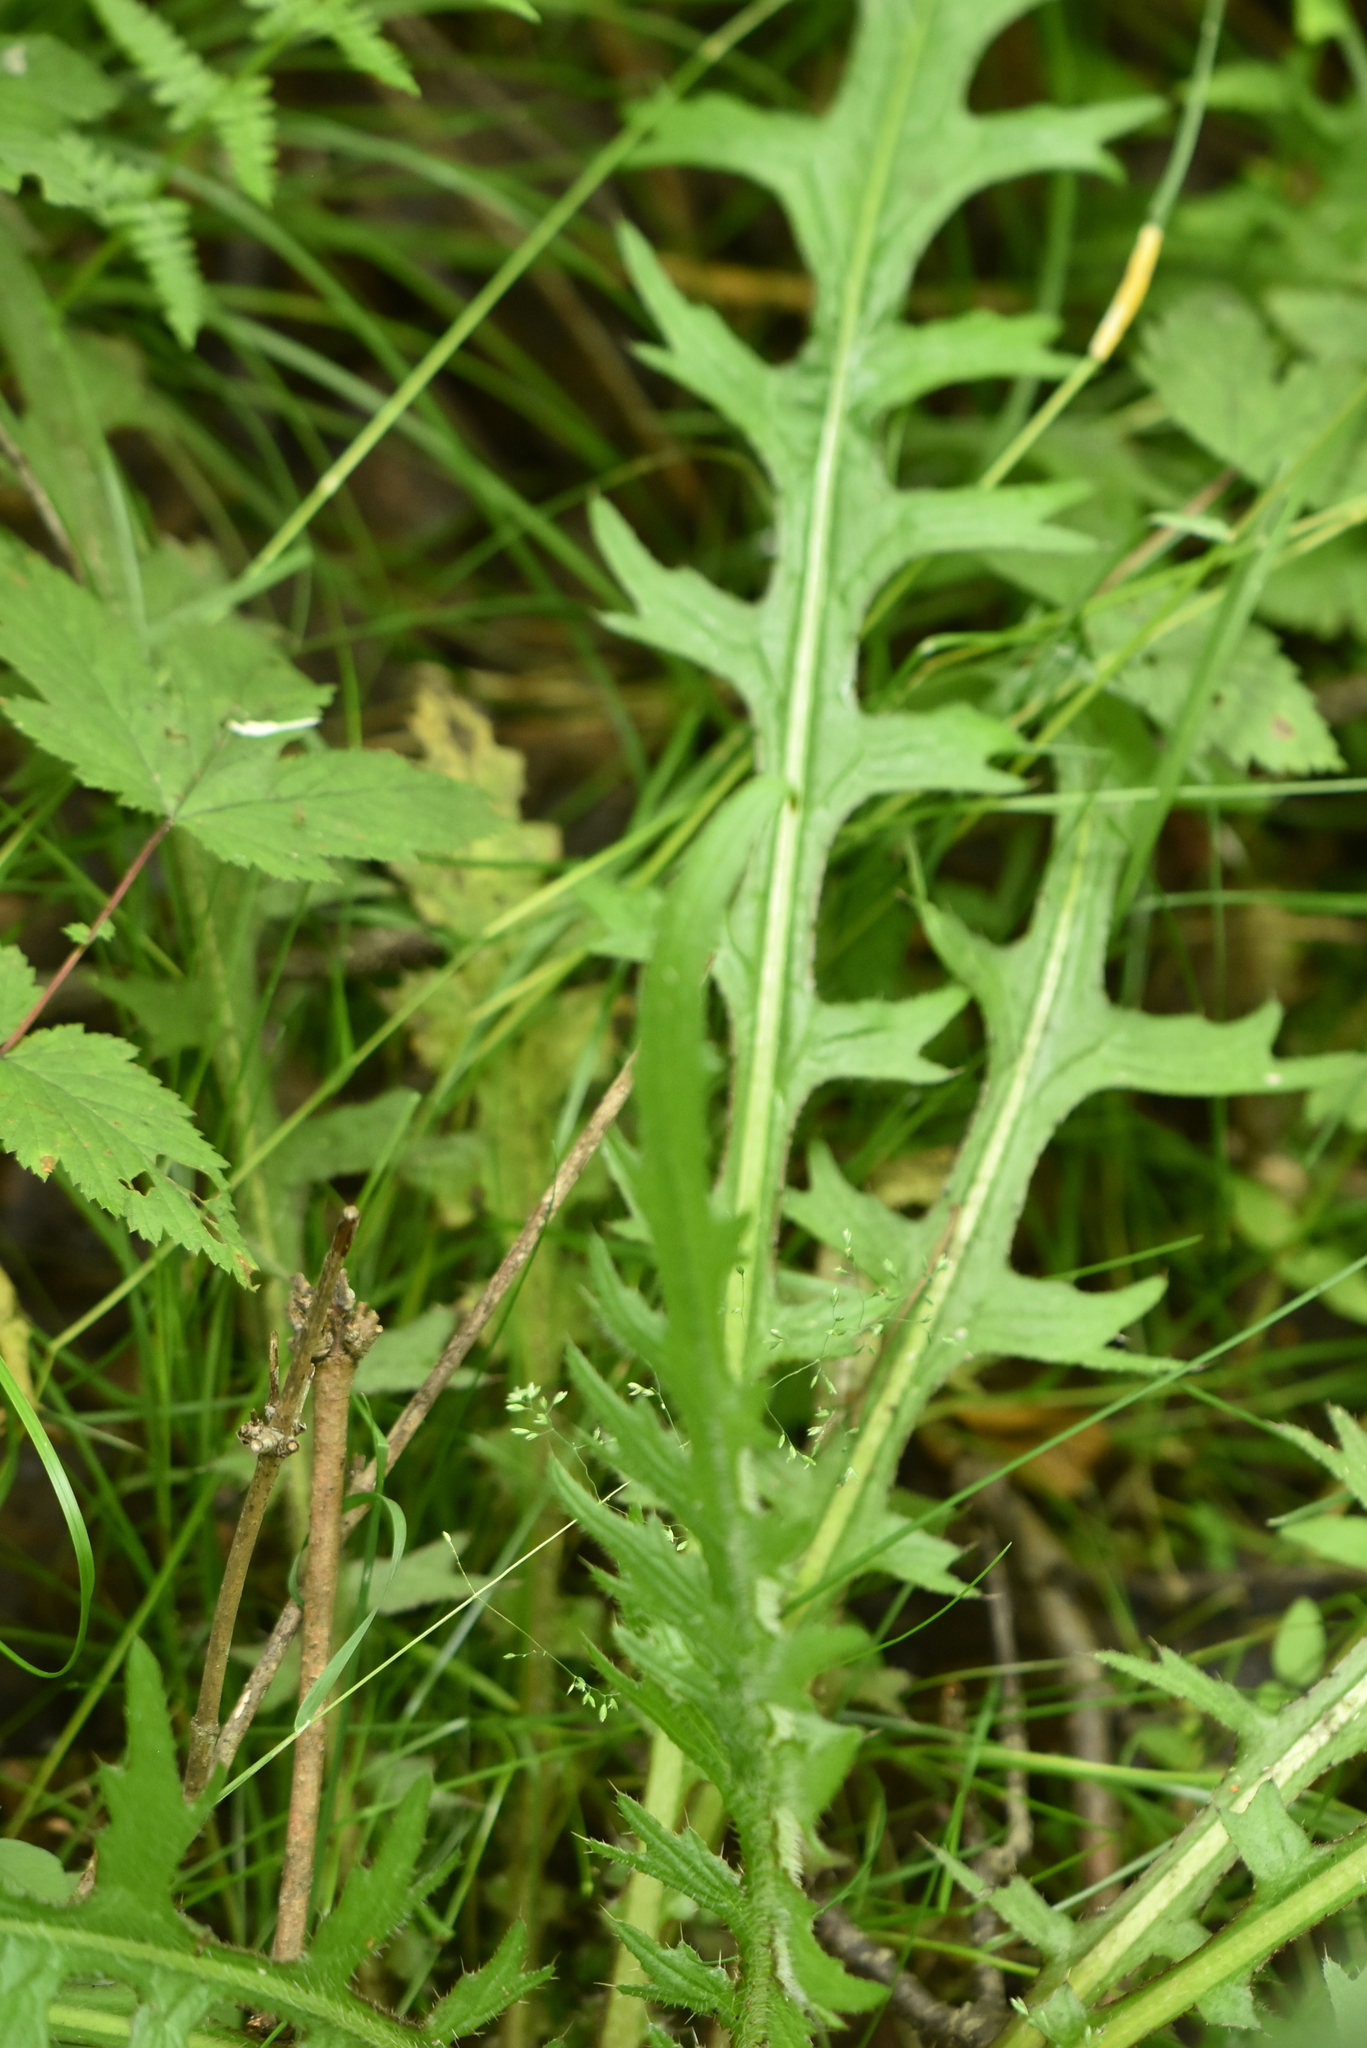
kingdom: Plantae
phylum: Tracheophyta
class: Magnoliopsida
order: Asterales
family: Asteraceae
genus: Cirsium
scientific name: Cirsium palustre
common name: Marsh thistle
